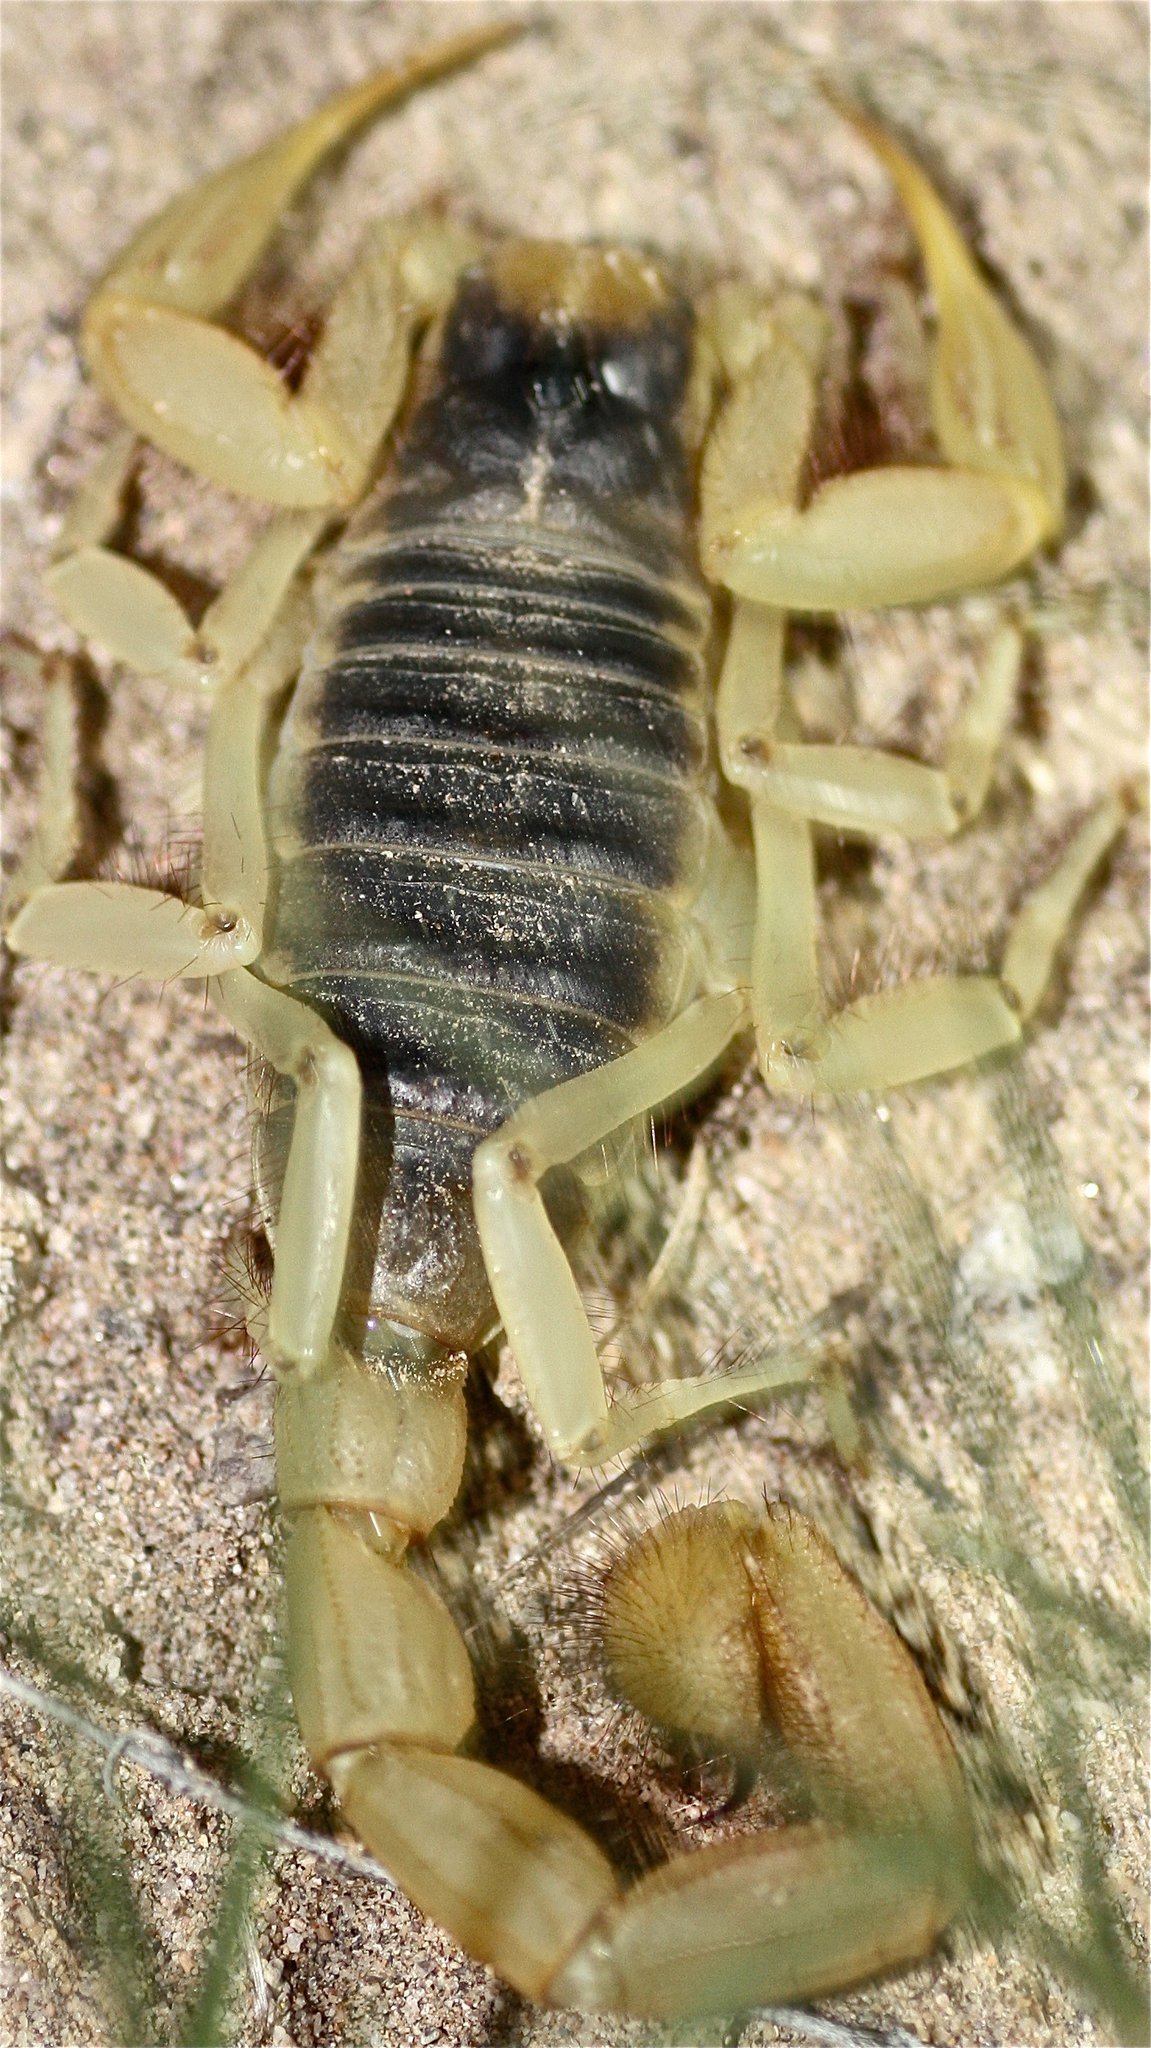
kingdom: Animalia
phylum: Arthropoda
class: Arachnida
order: Scorpiones
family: Hadruridae
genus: Hadrurus
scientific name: Hadrurus arizonensis
